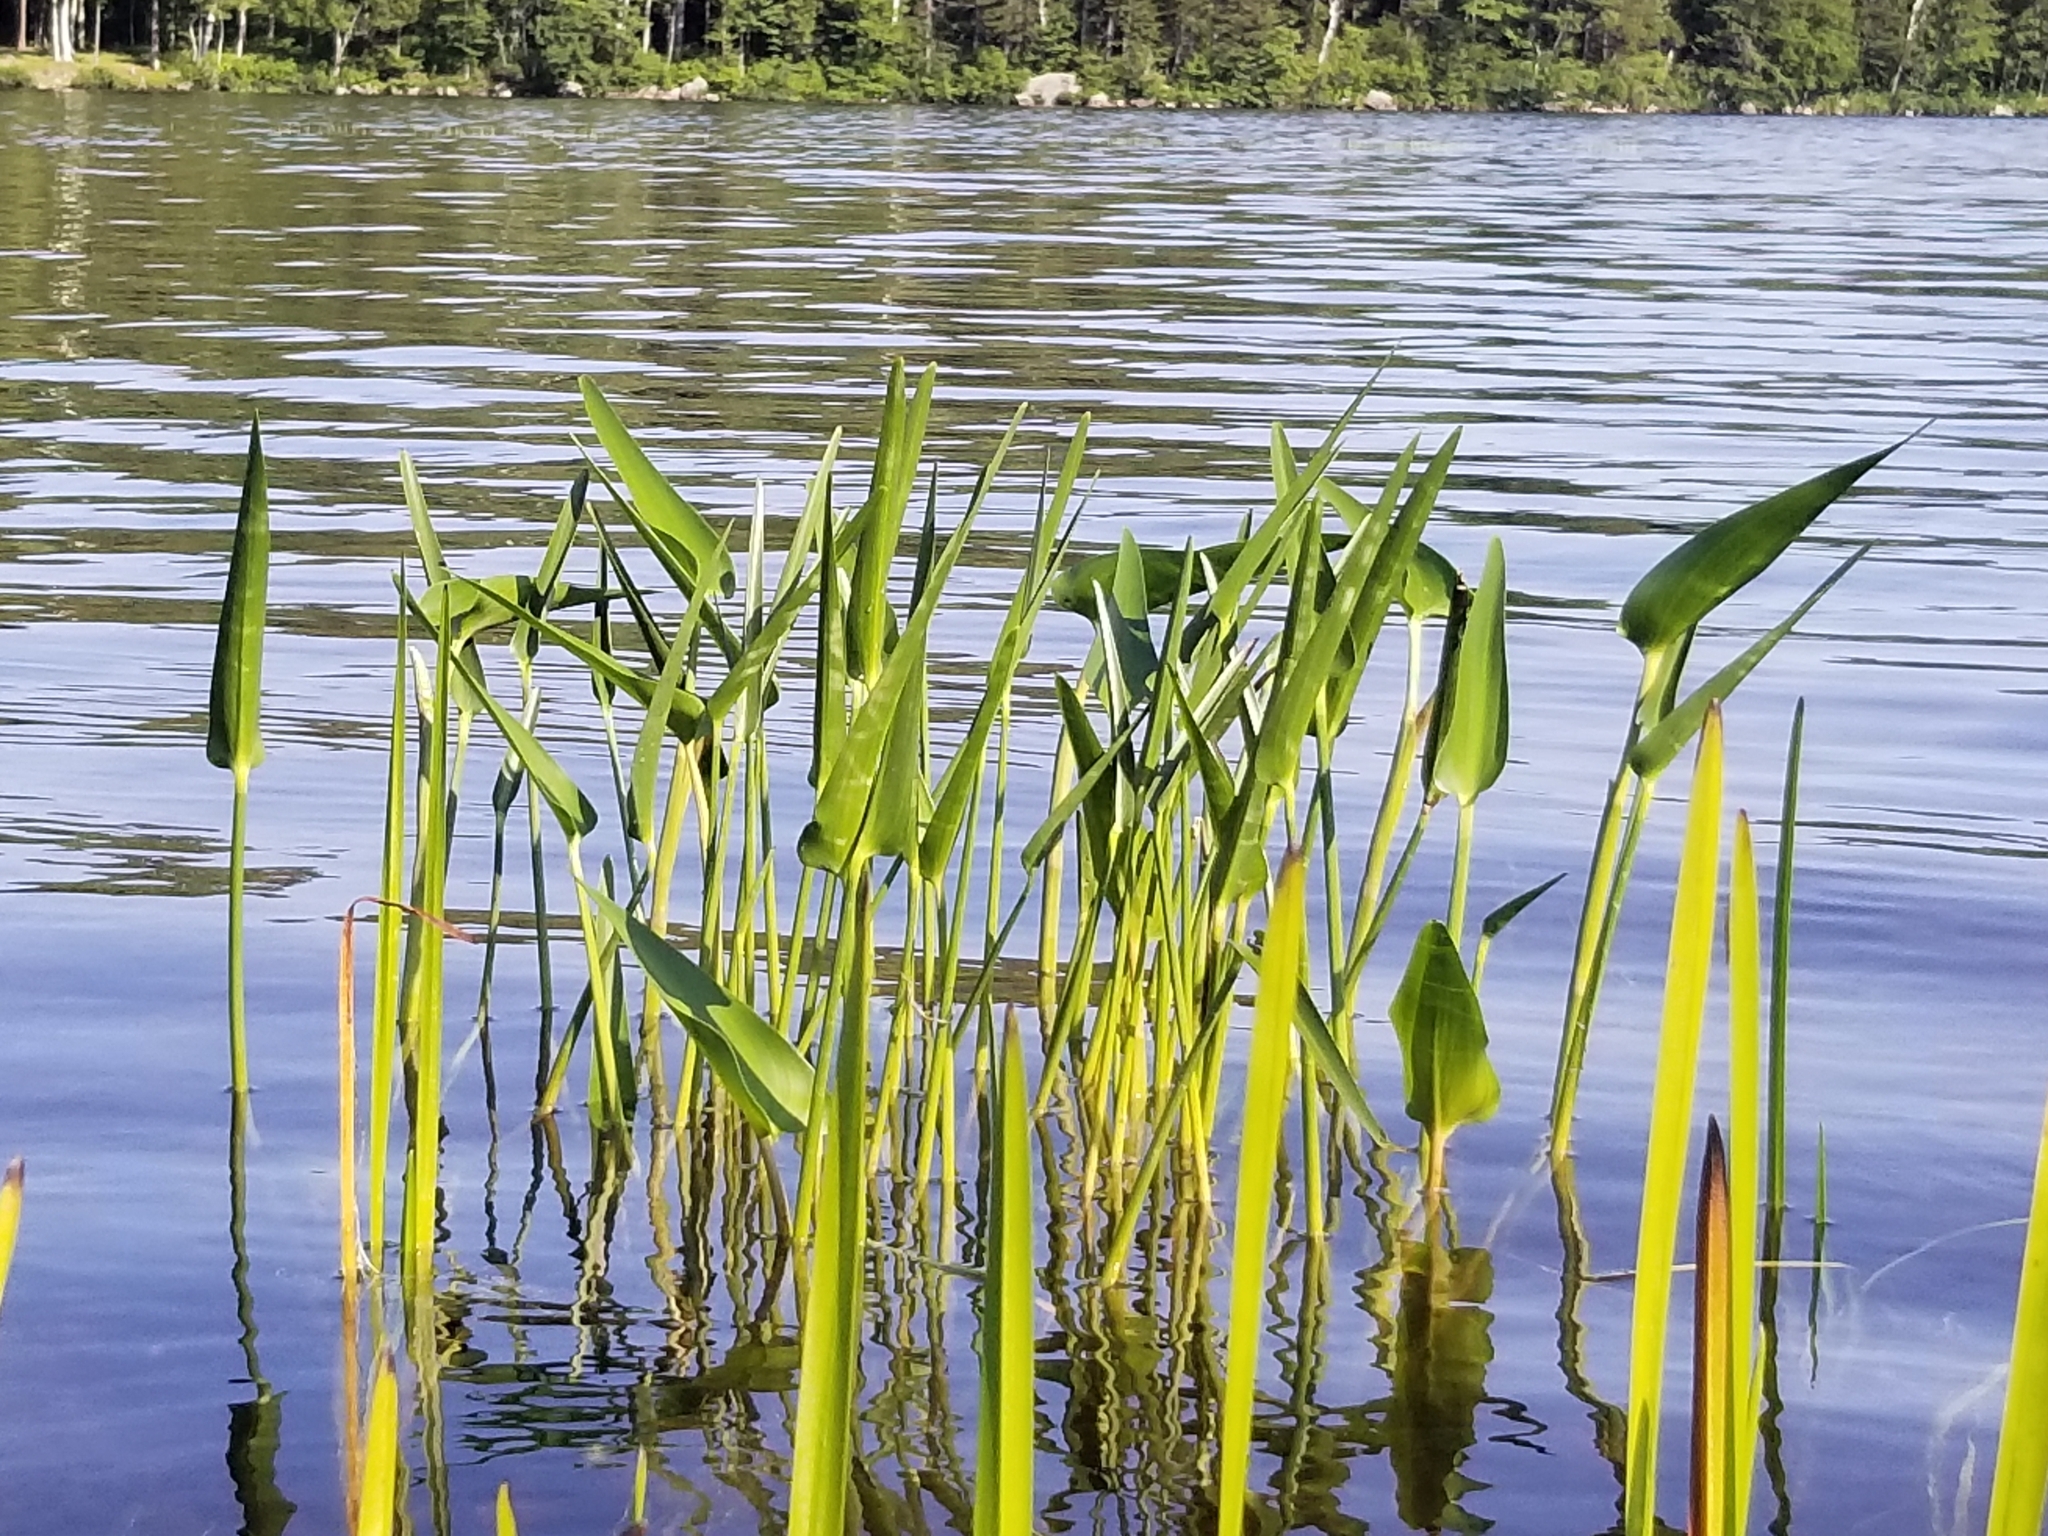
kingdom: Plantae
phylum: Tracheophyta
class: Liliopsida
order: Commelinales
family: Pontederiaceae
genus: Pontederia
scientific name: Pontederia cordata
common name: Pickerelweed
